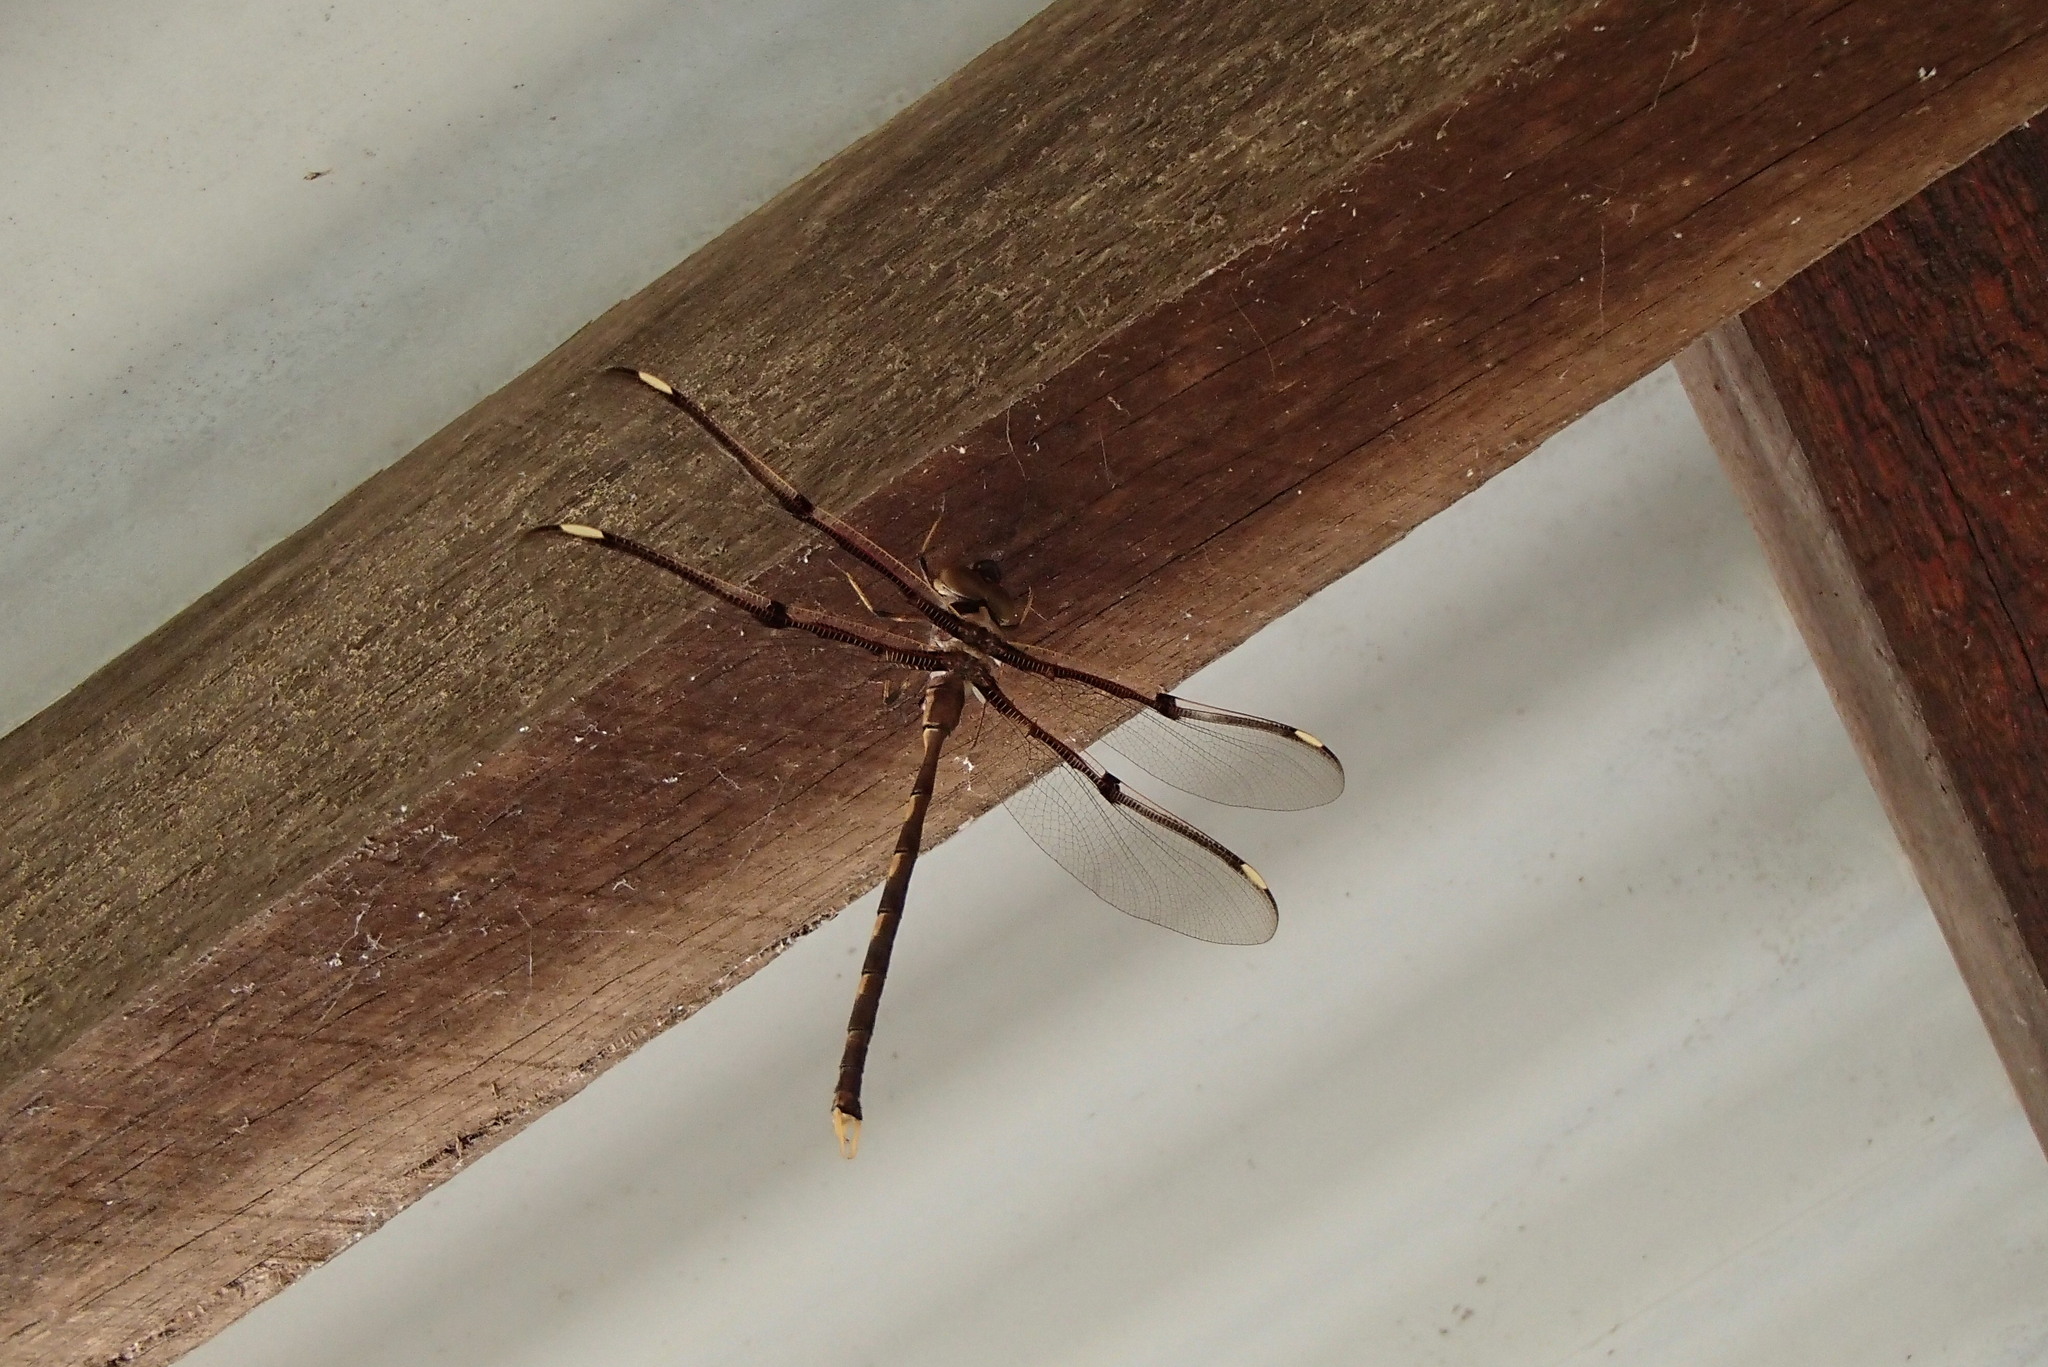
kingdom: Animalia
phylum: Arthropoda
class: Insecta
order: Odonata
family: Aeshnidae
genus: Telephlebia
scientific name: Telephlebia godeffroyi
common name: Eastern evening darner
